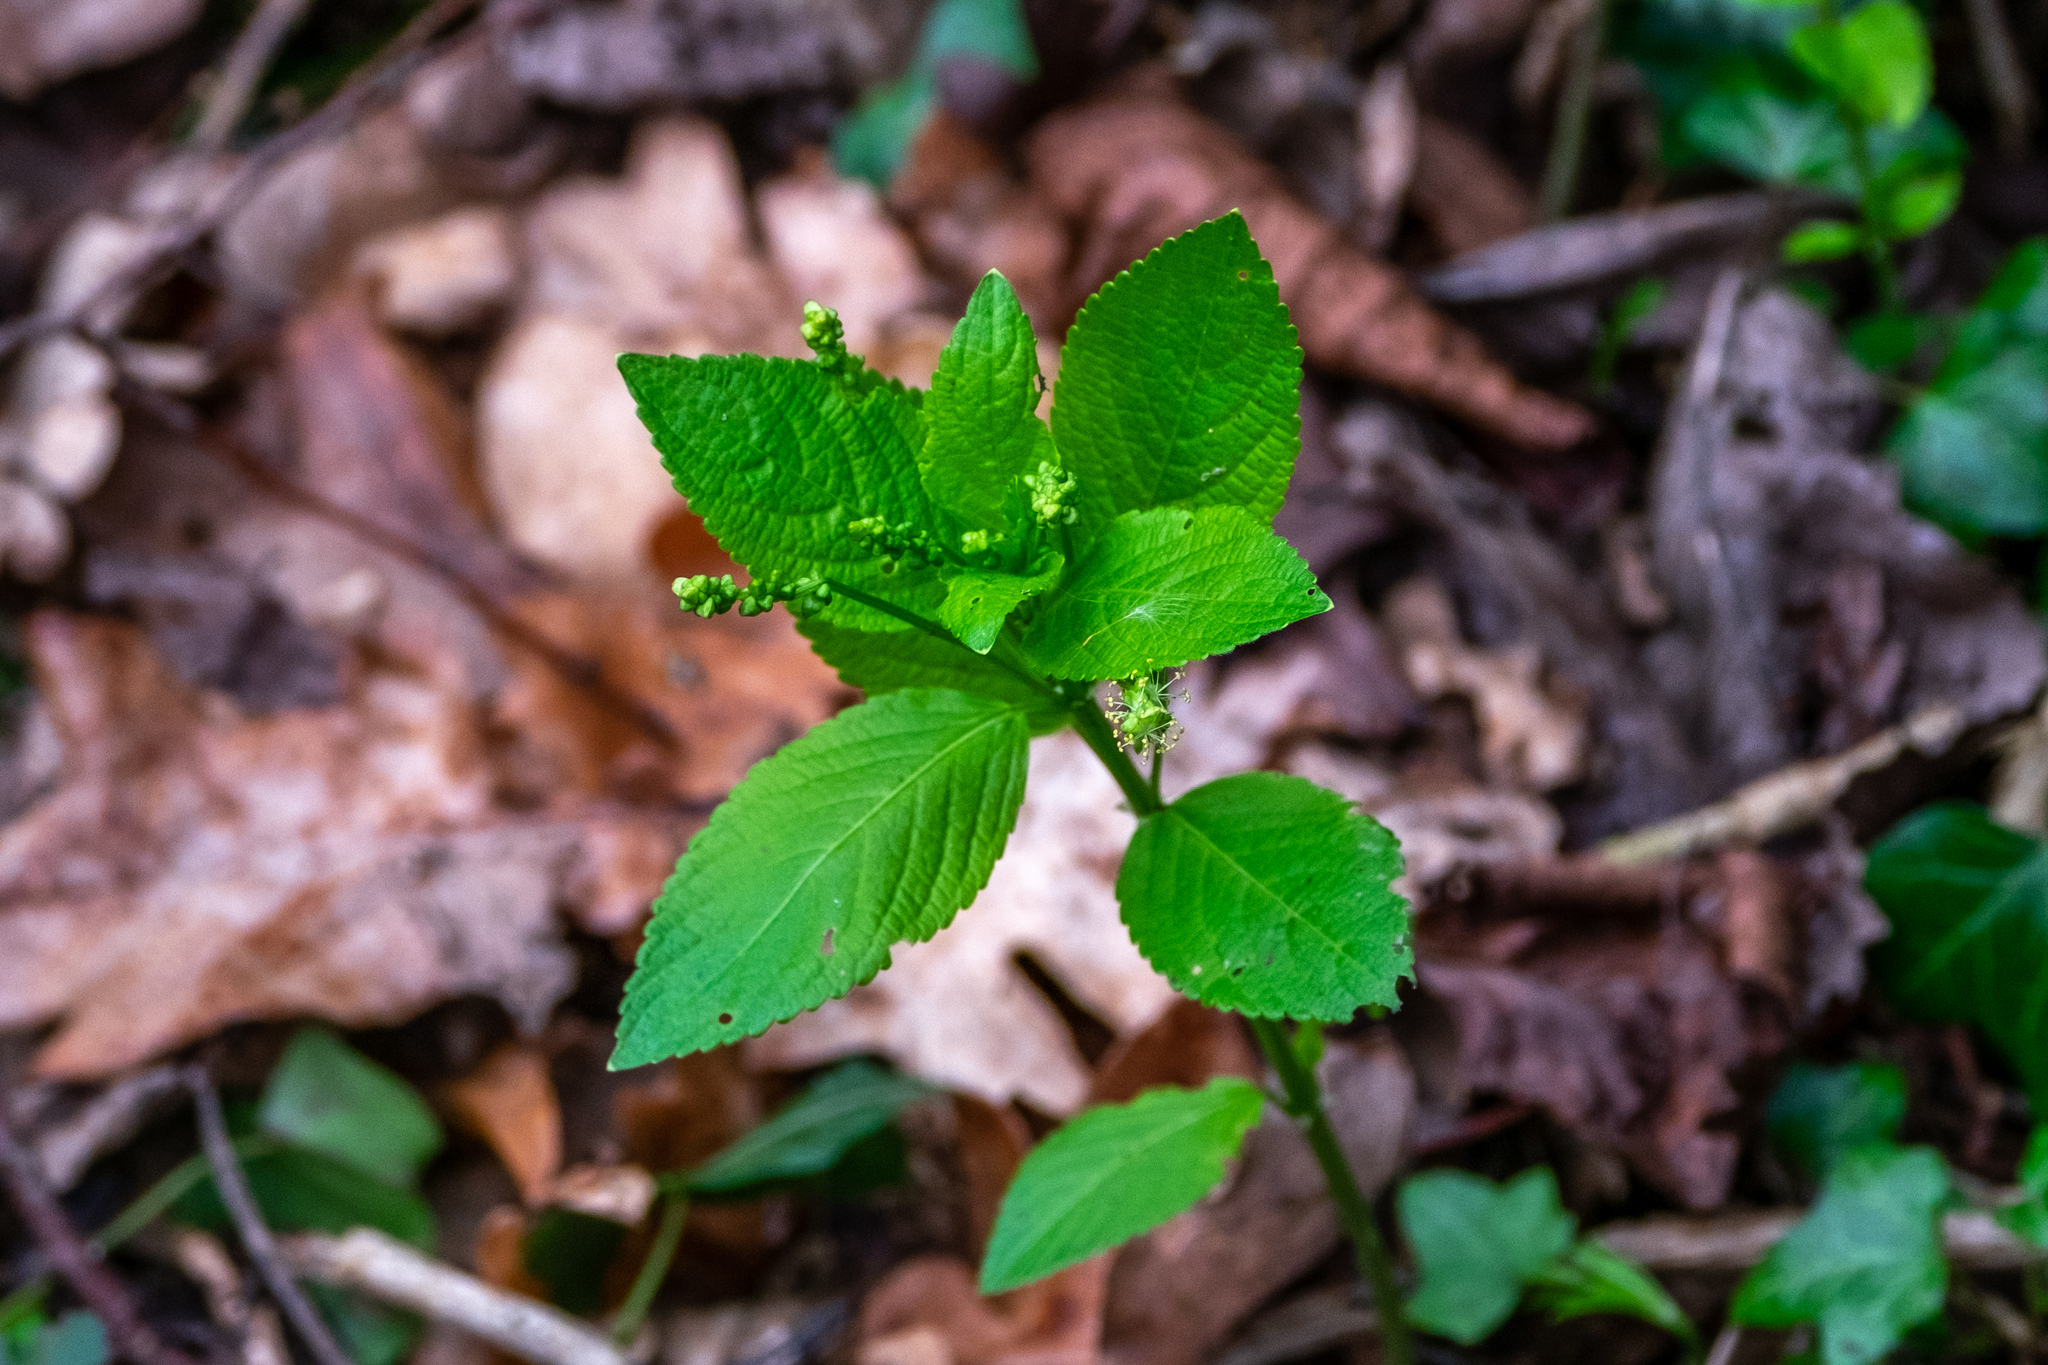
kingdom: Plantae
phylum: Tracheophyta
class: Magnoliopsida
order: Malpighiales
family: Euphorbiaceae
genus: Mercurialis
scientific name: Mercurialis perennis
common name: Dog mercury
